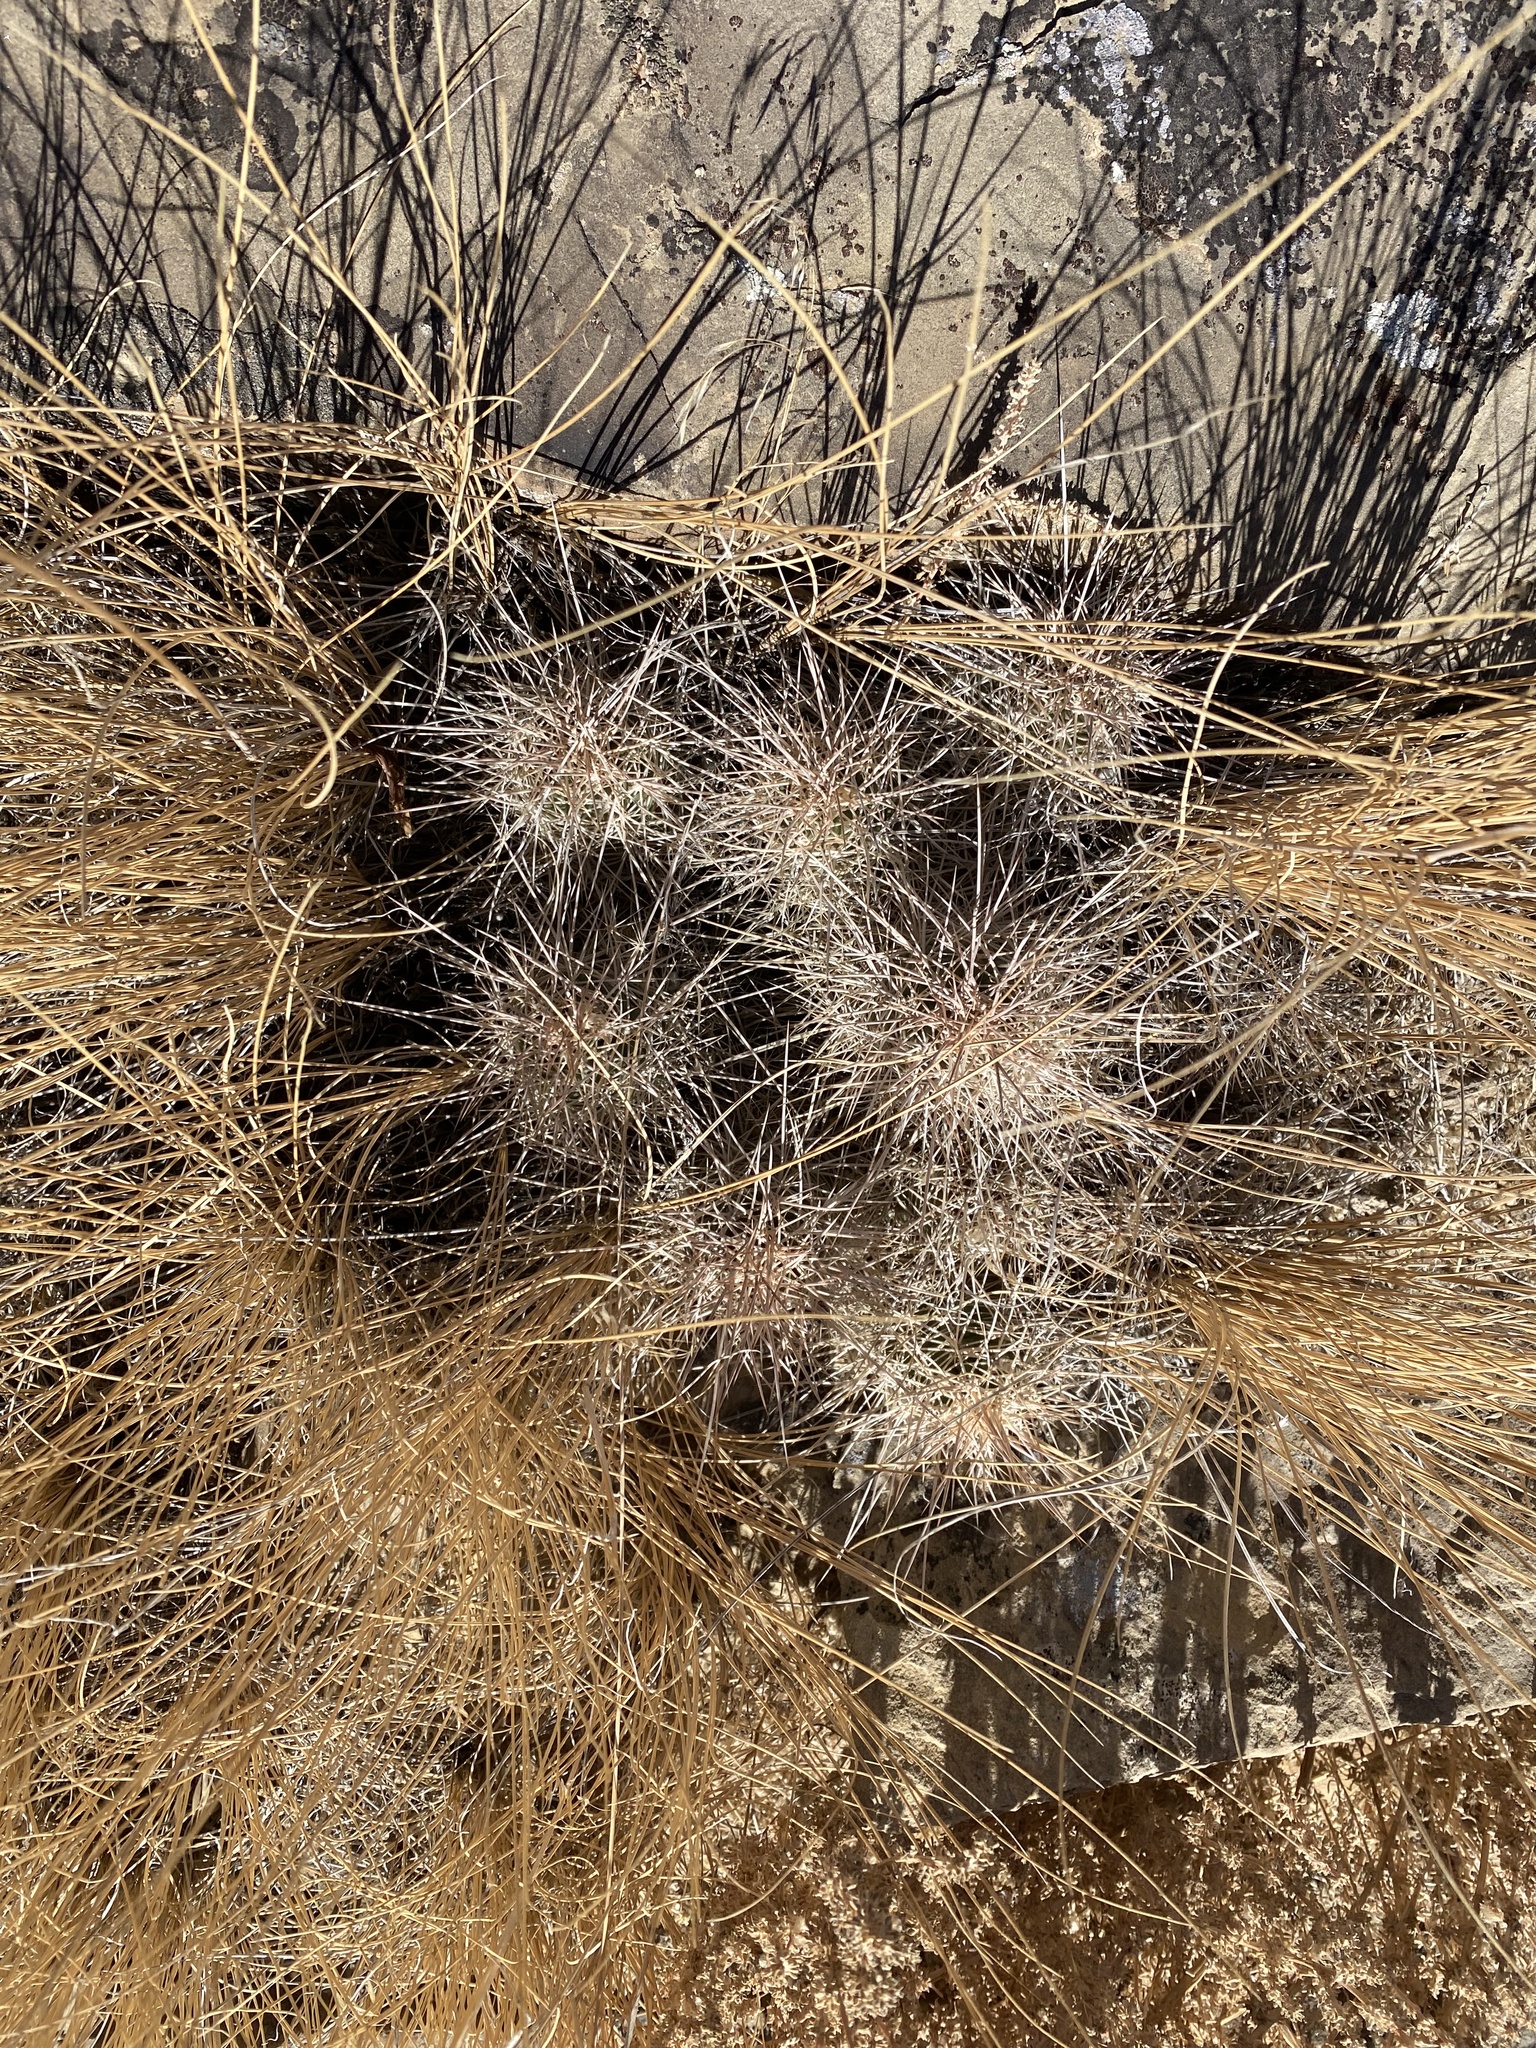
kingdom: Plantae
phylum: Tracheophyta
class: Magnoliopsida
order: Caryophyllales
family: Cactaceae
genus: Echinocereus
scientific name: Echinocereus triglochidiatus
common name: Claretcup hedgehog
